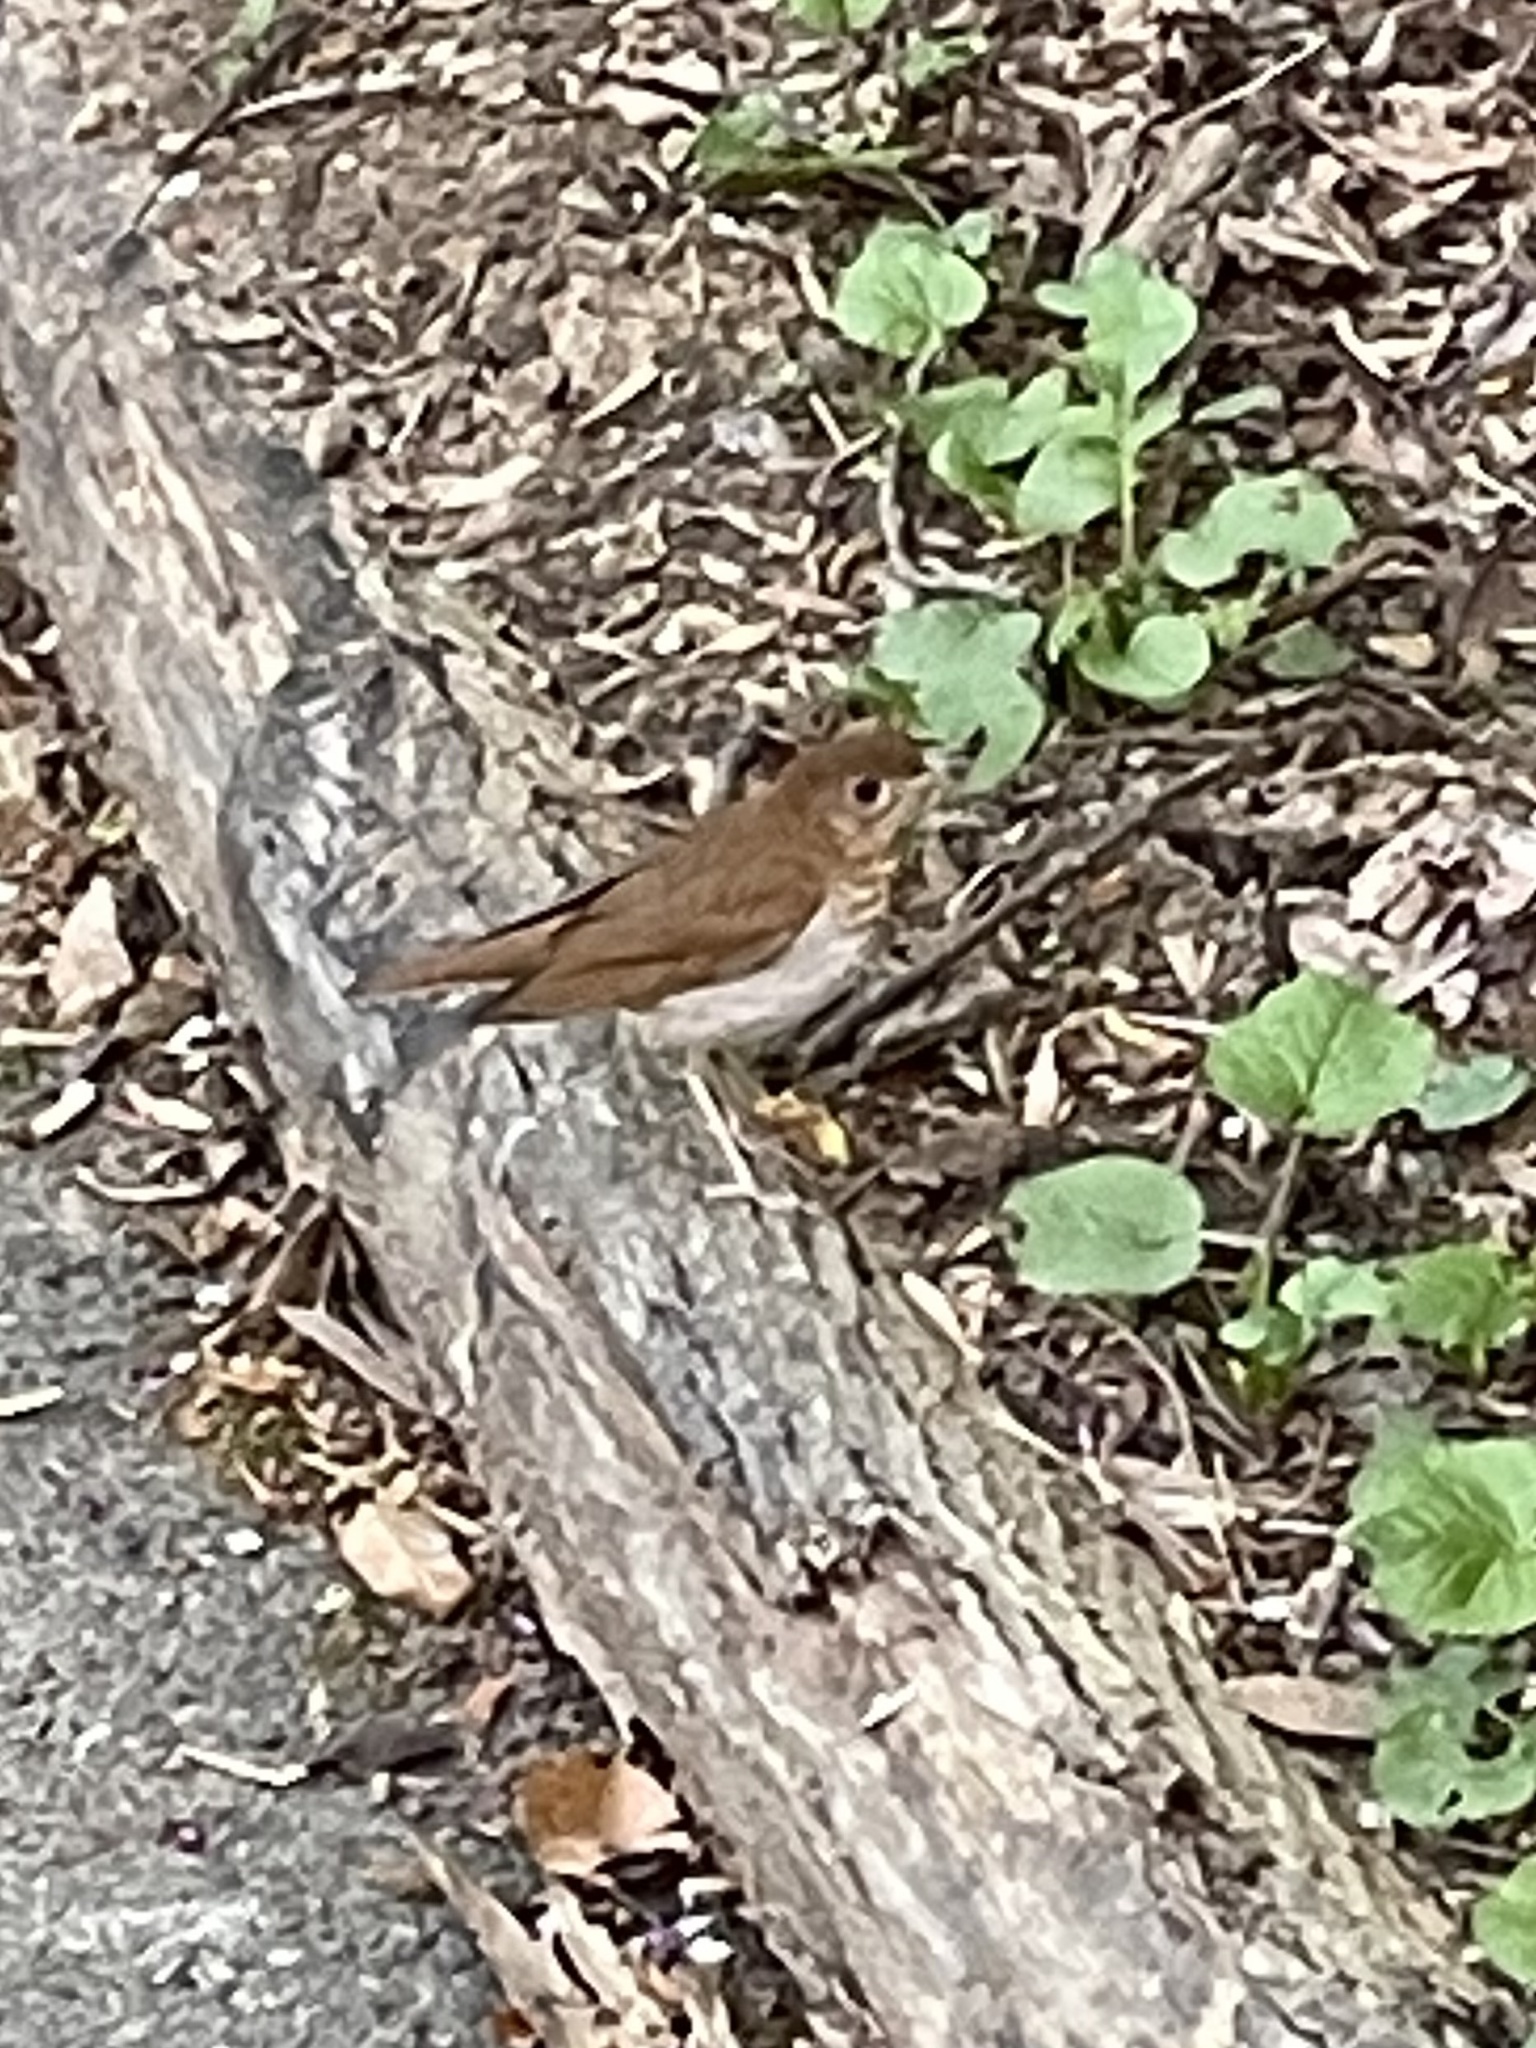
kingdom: Animalia
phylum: Chordata
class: Aves
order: Passeriformes
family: Turdidae
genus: Catharus
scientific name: Catharus fuscescens
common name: Veery
